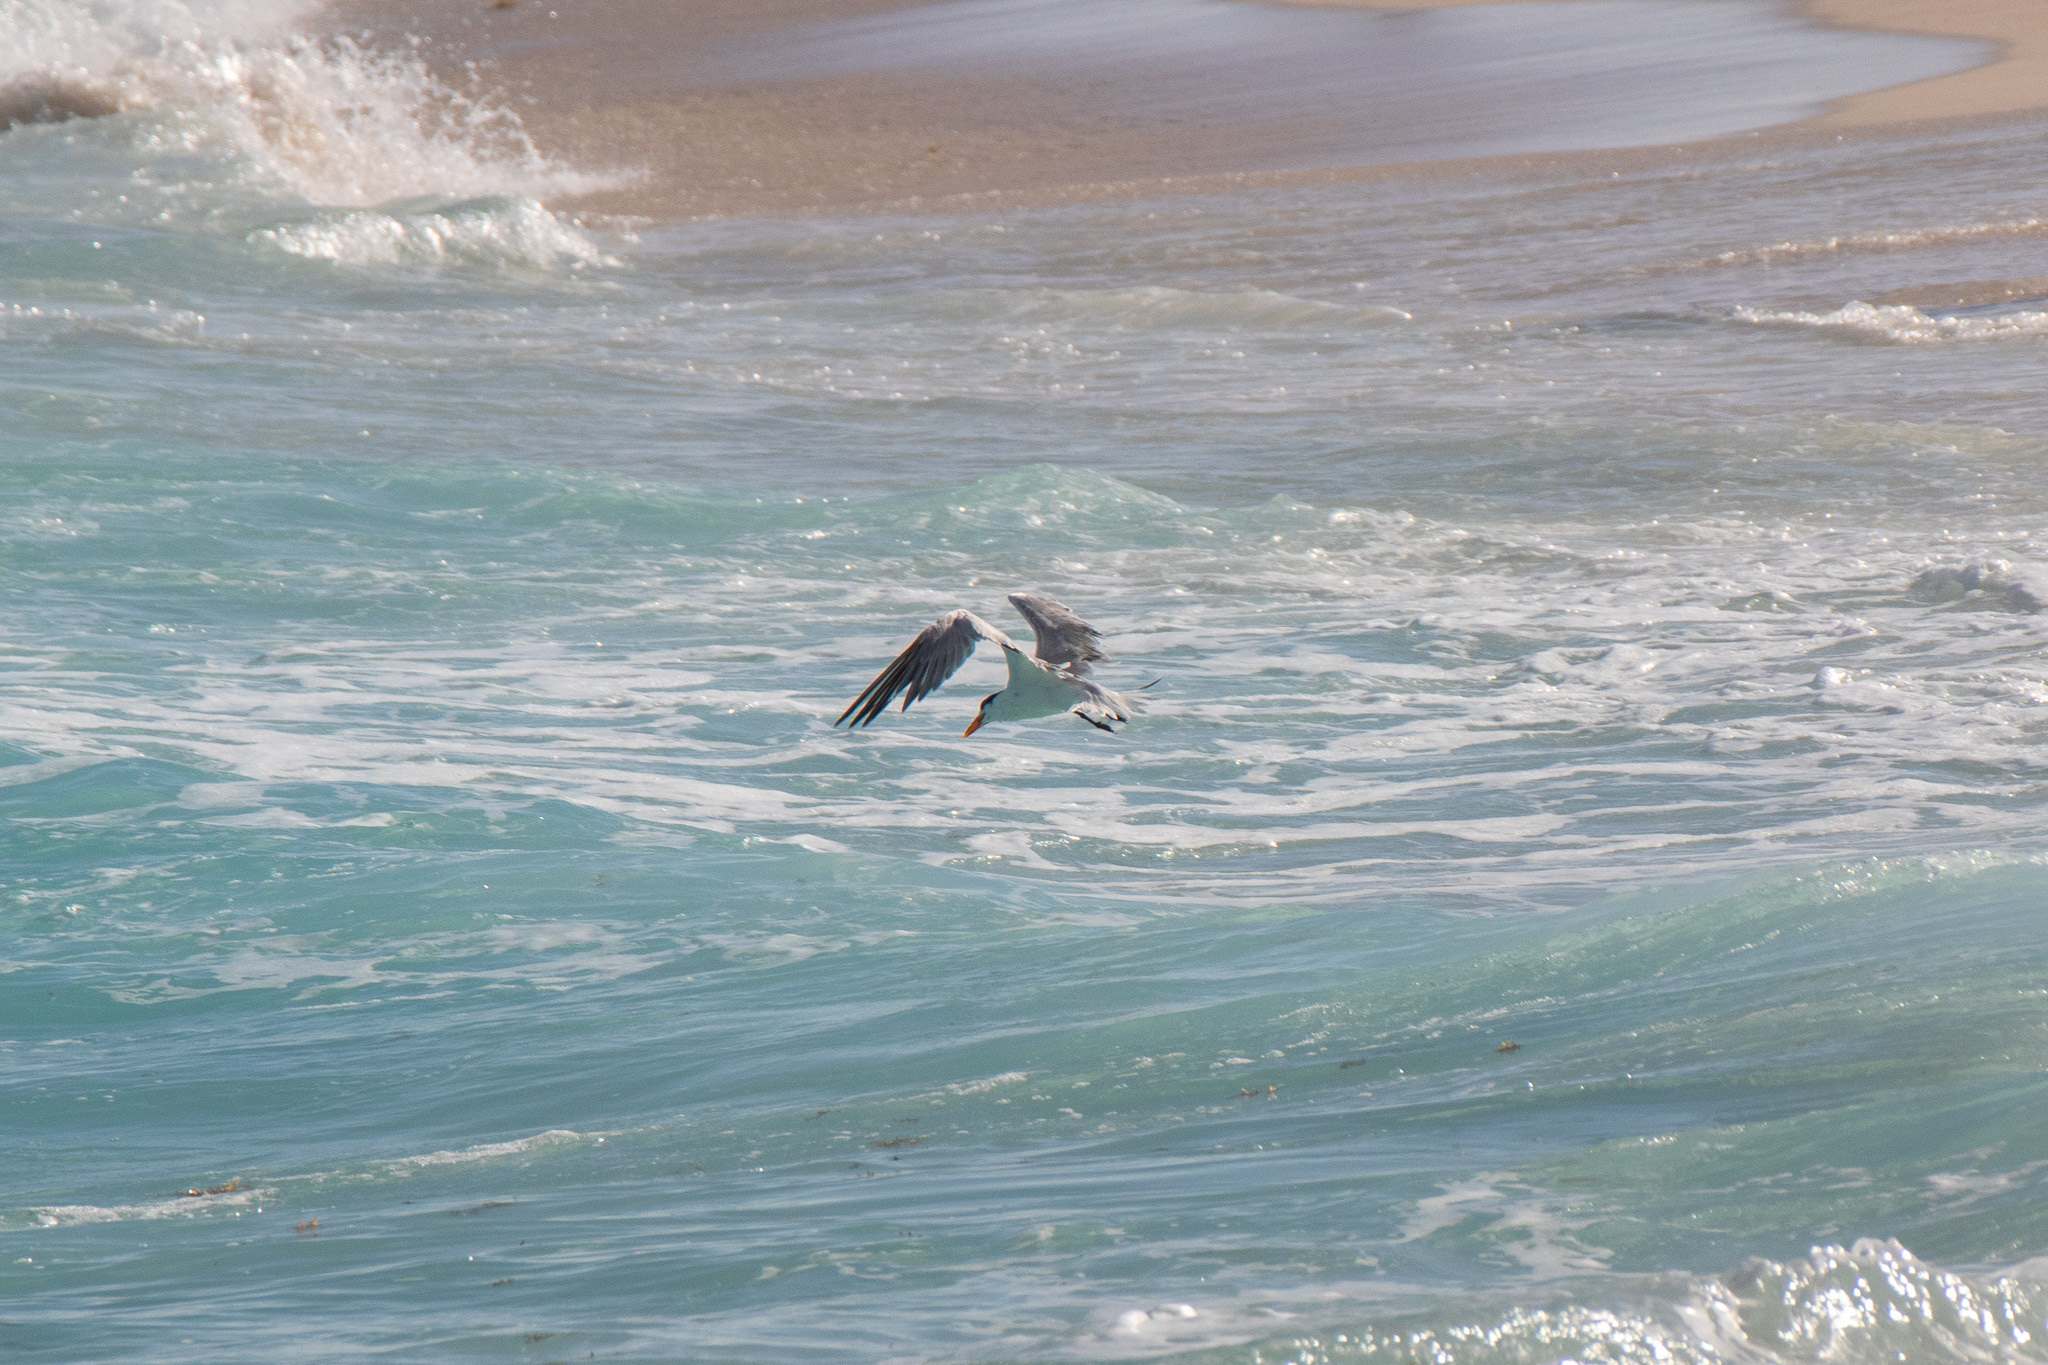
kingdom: Animalia
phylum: Chordata
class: Aves
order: Charadriiformes
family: Laridae
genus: Thalasseus
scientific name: Thalasseus maximus
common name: Royal tern
